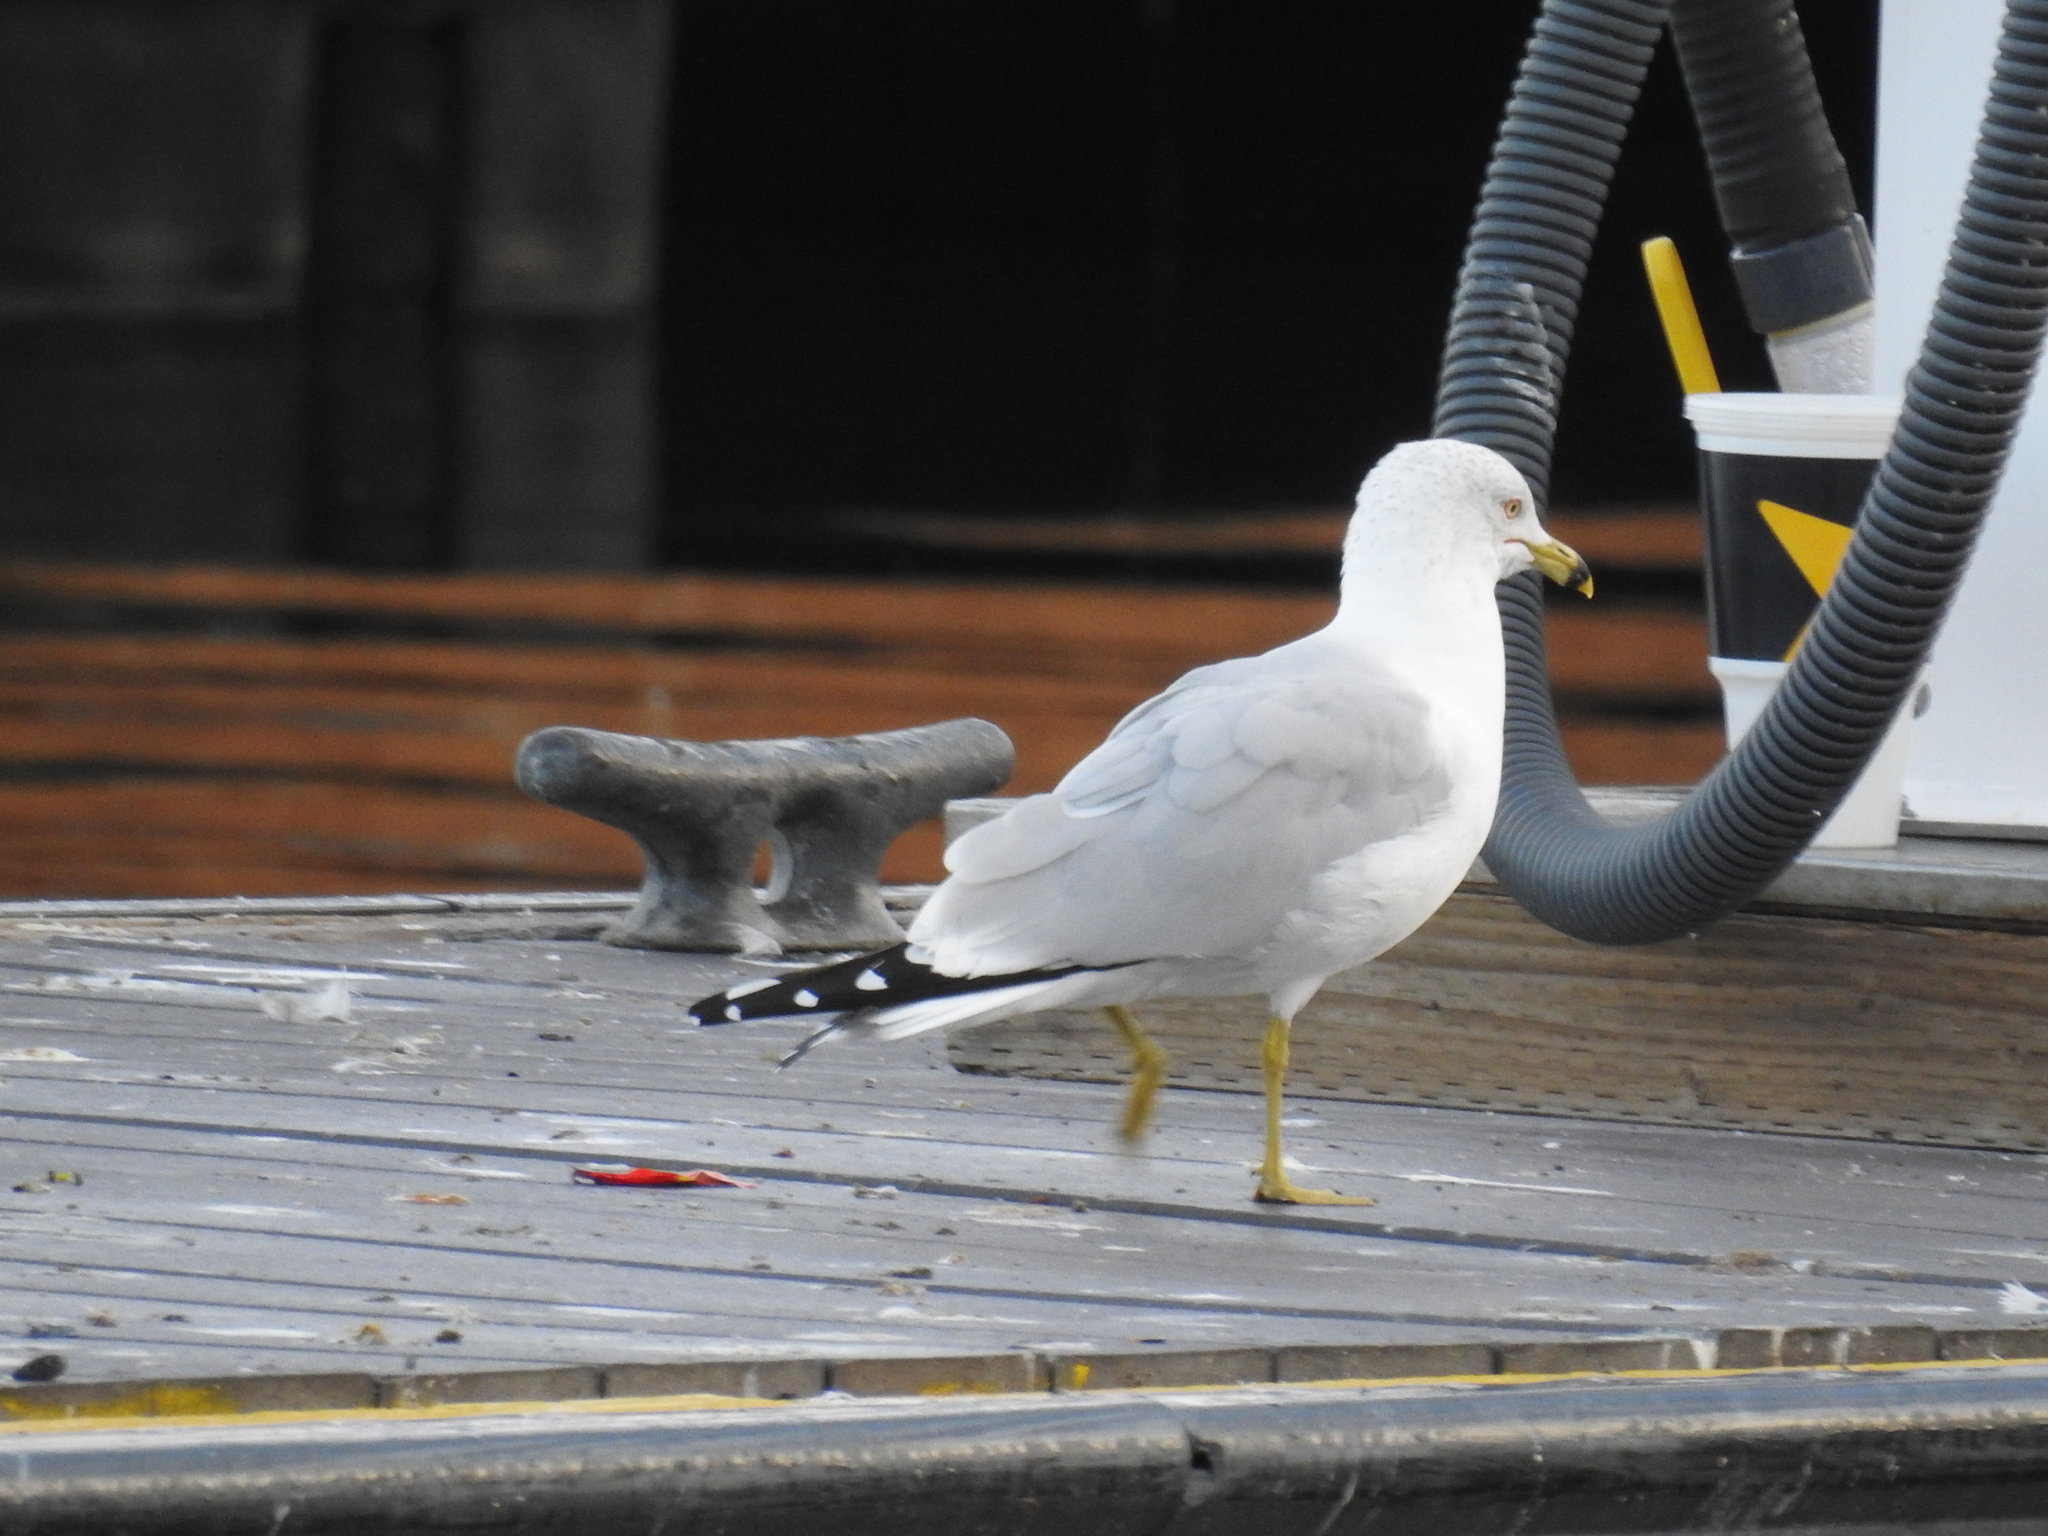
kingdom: Animalia
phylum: Chordata
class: Aves
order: Charadriiformes
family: Laridae
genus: Larus
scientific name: Larus delawarensis
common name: Ring-billed gull
